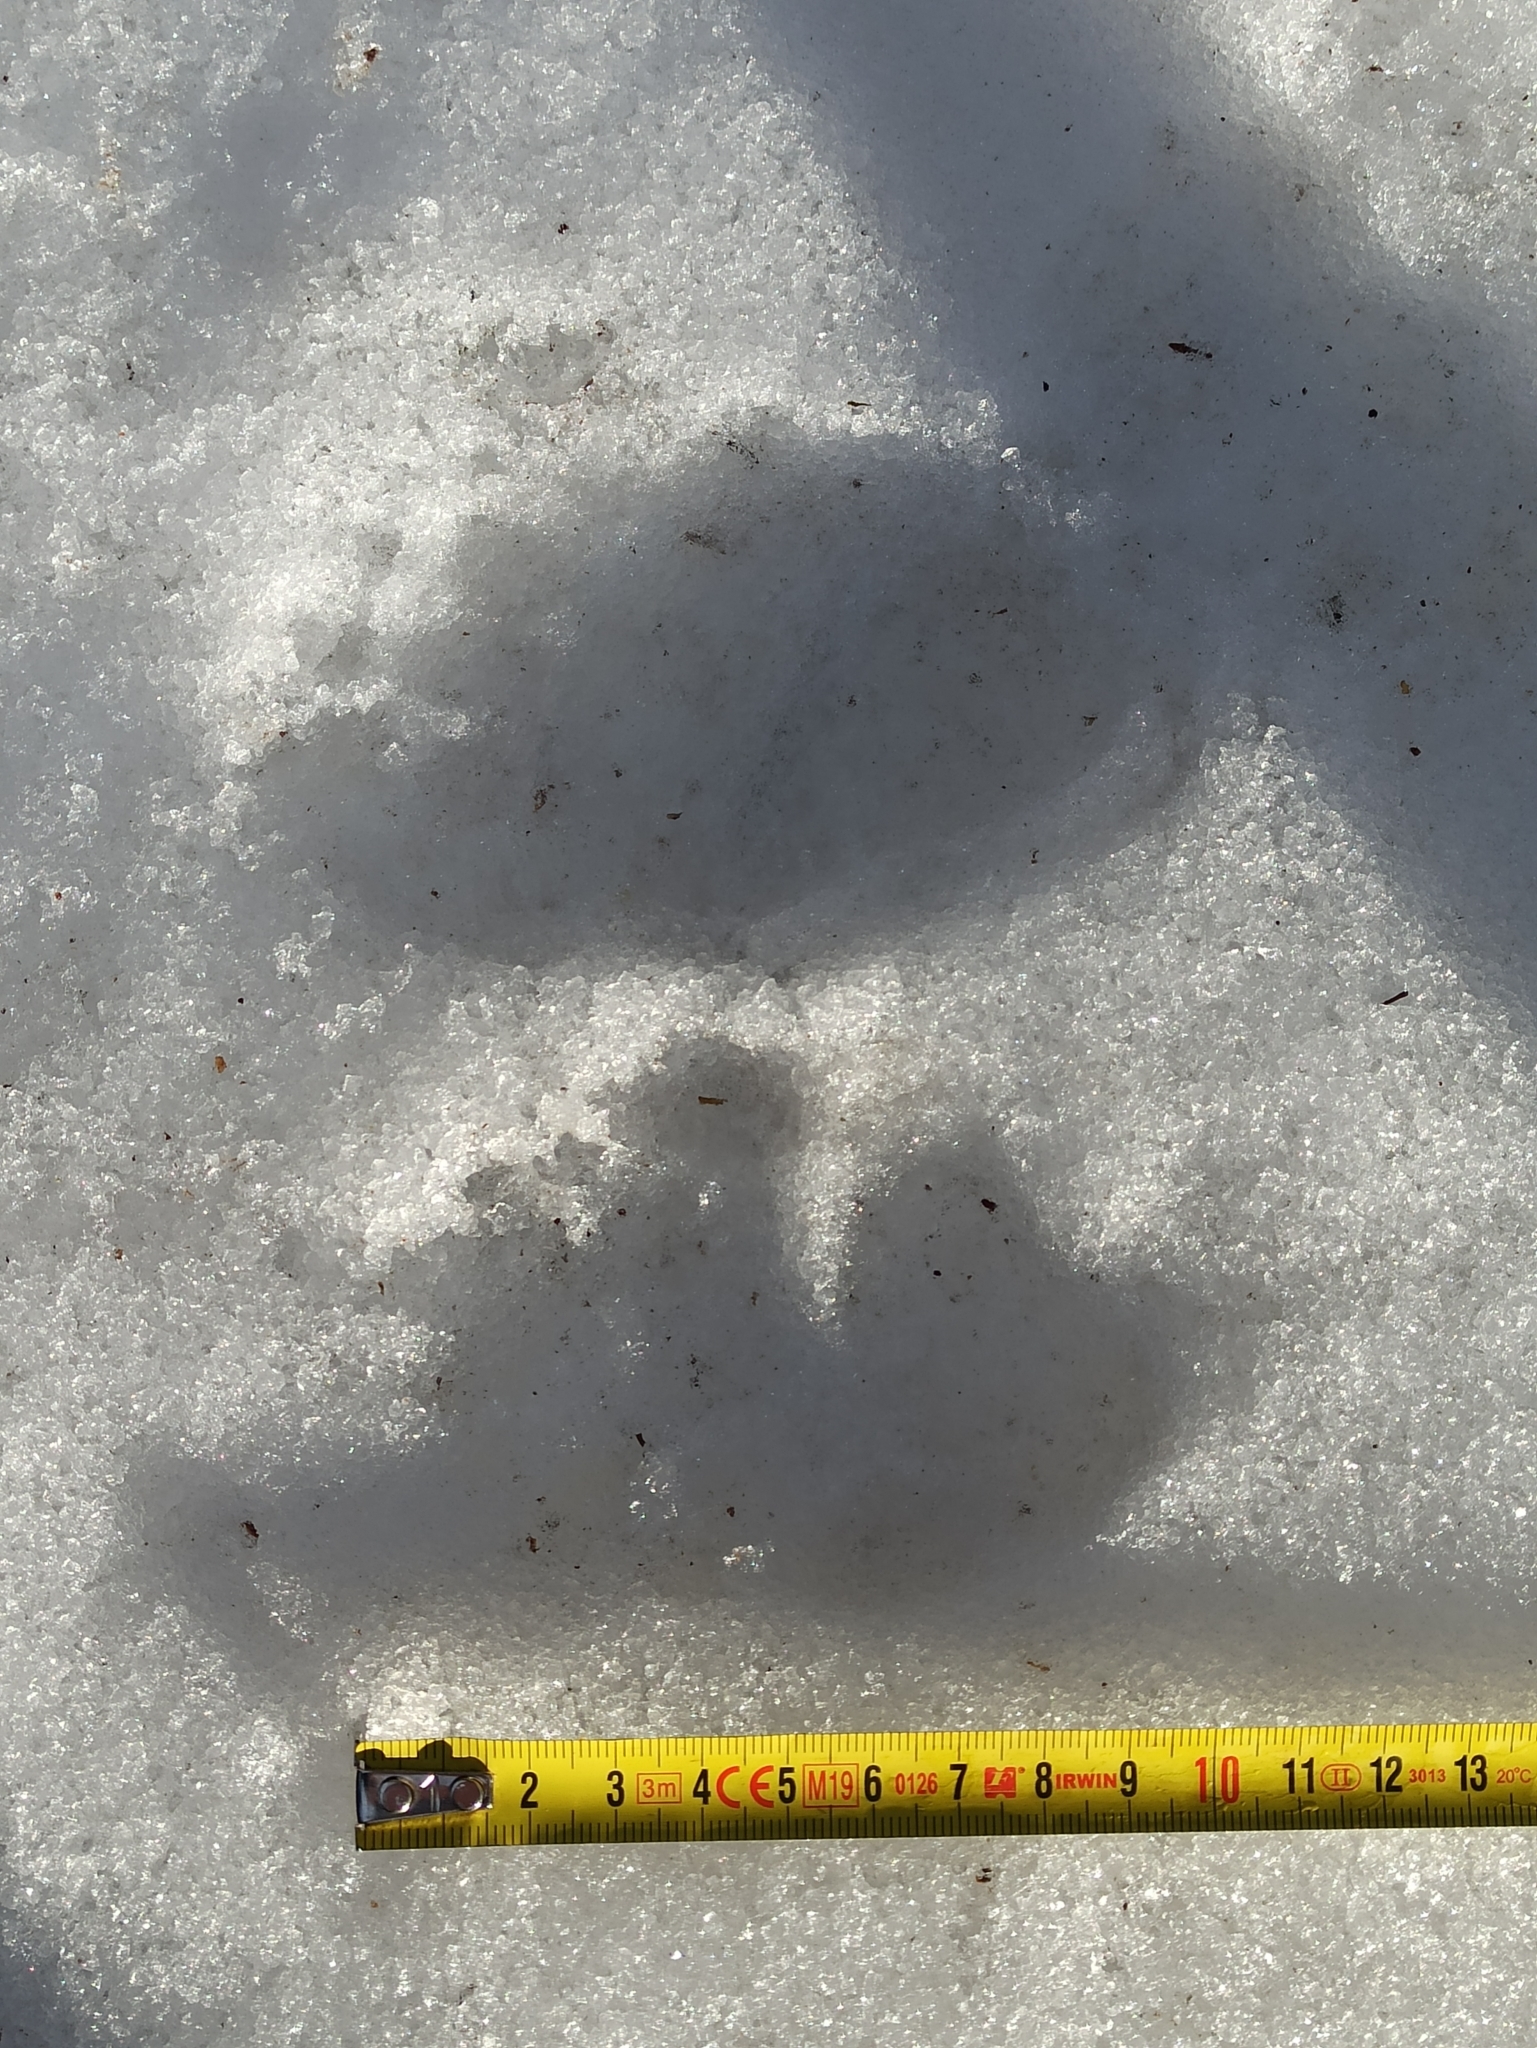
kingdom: Animalia
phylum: Chordata
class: Mammalia
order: Carnivora
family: Ursidae
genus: Ursus
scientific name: Ursus arctos
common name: Brown bear
